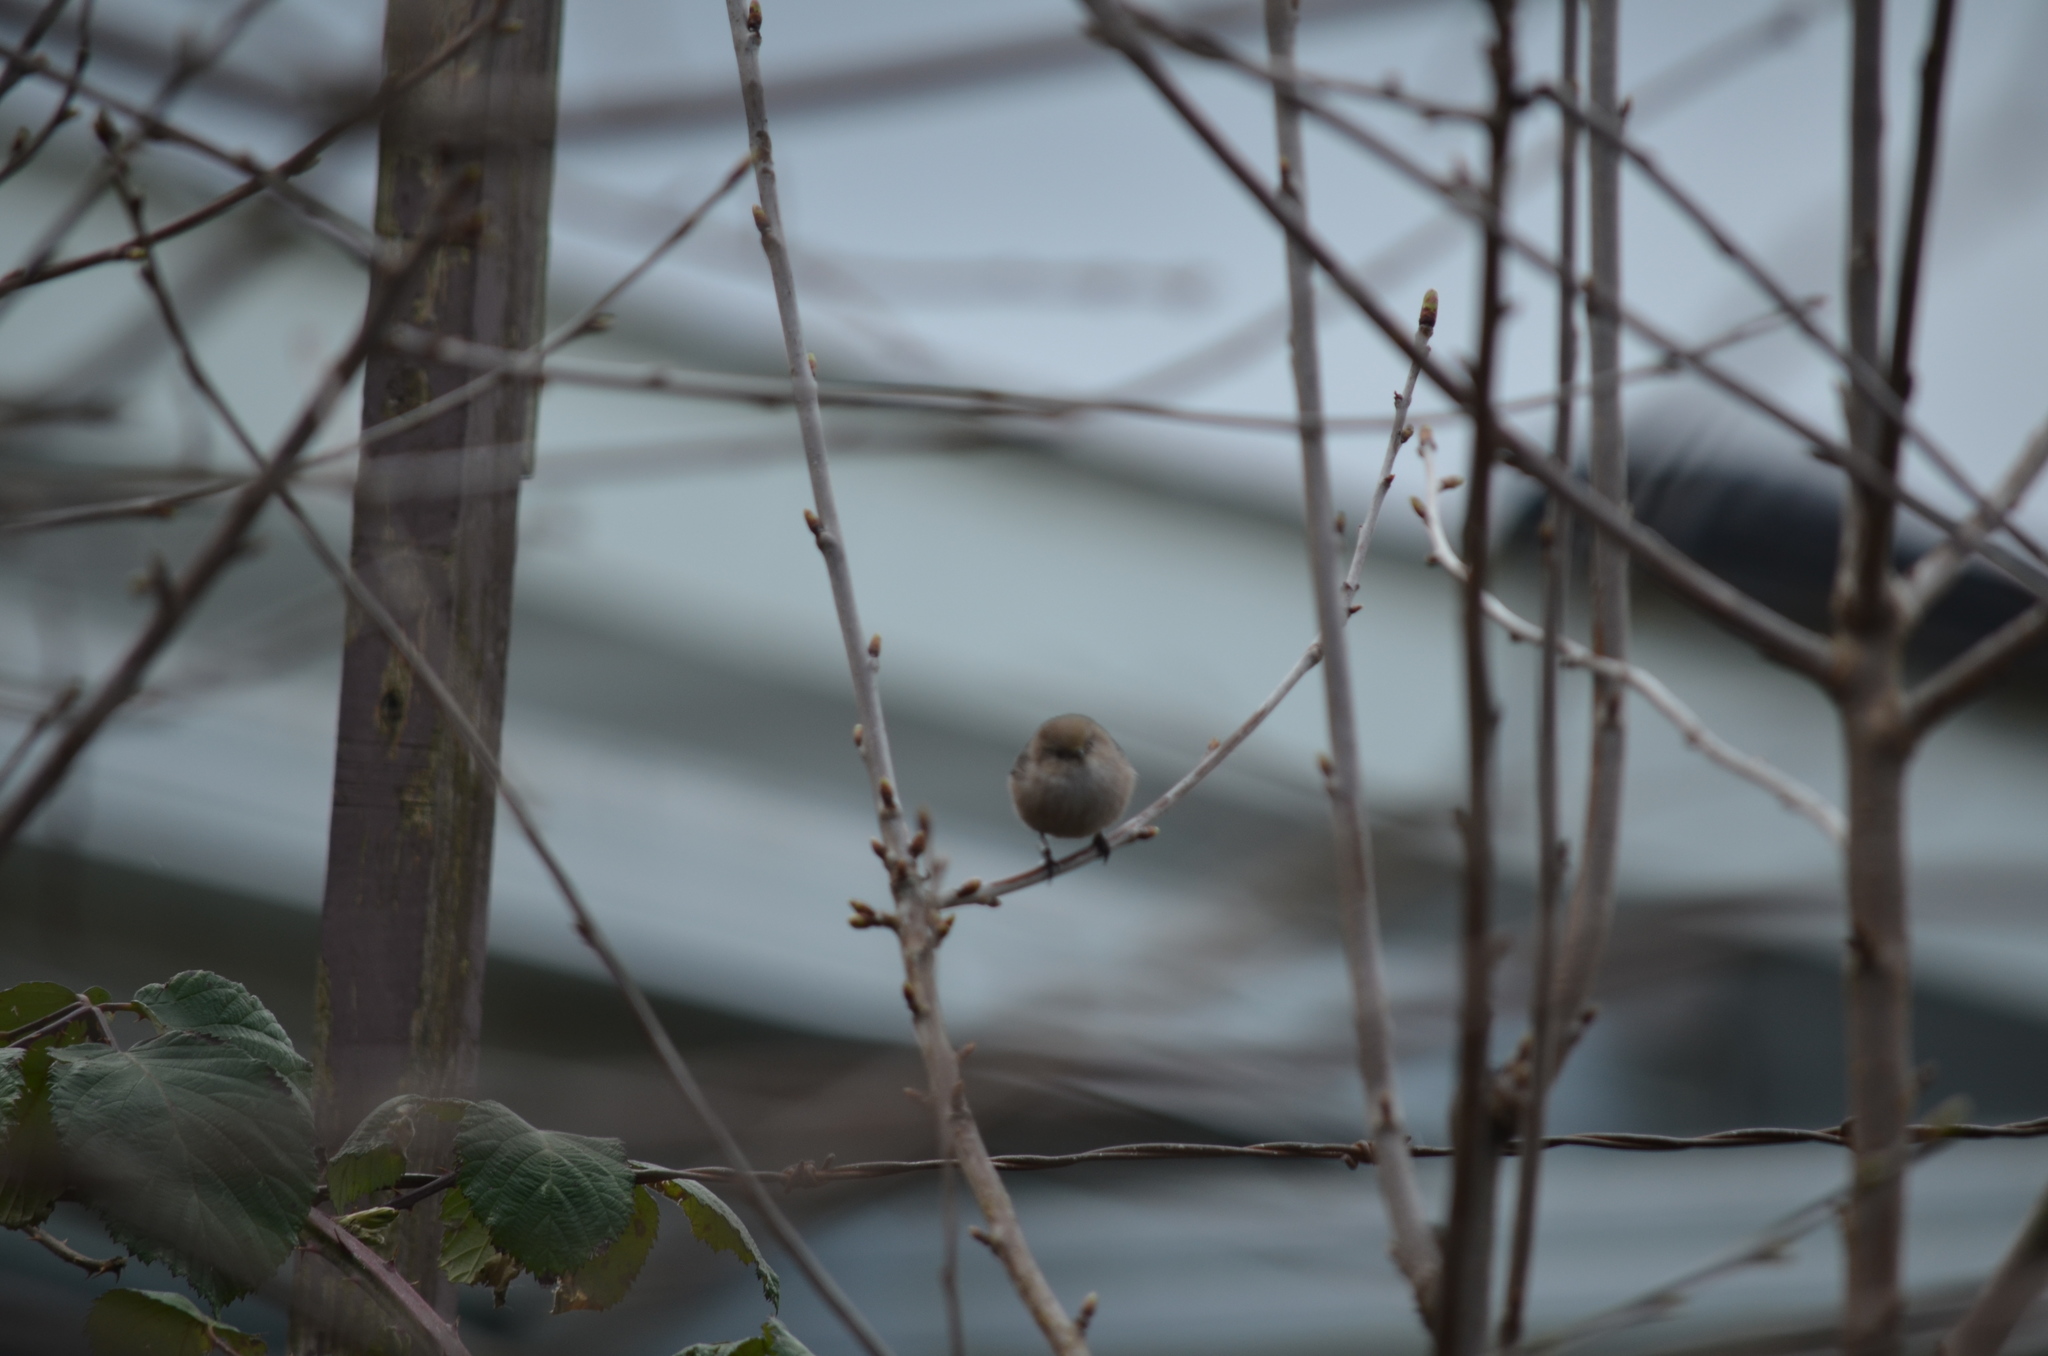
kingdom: Animalia
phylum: Chordata
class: Aves
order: Passeriformes
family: Aegithalidae
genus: Psaltriparus
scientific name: Psaltriparus minimus
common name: American bushtit
